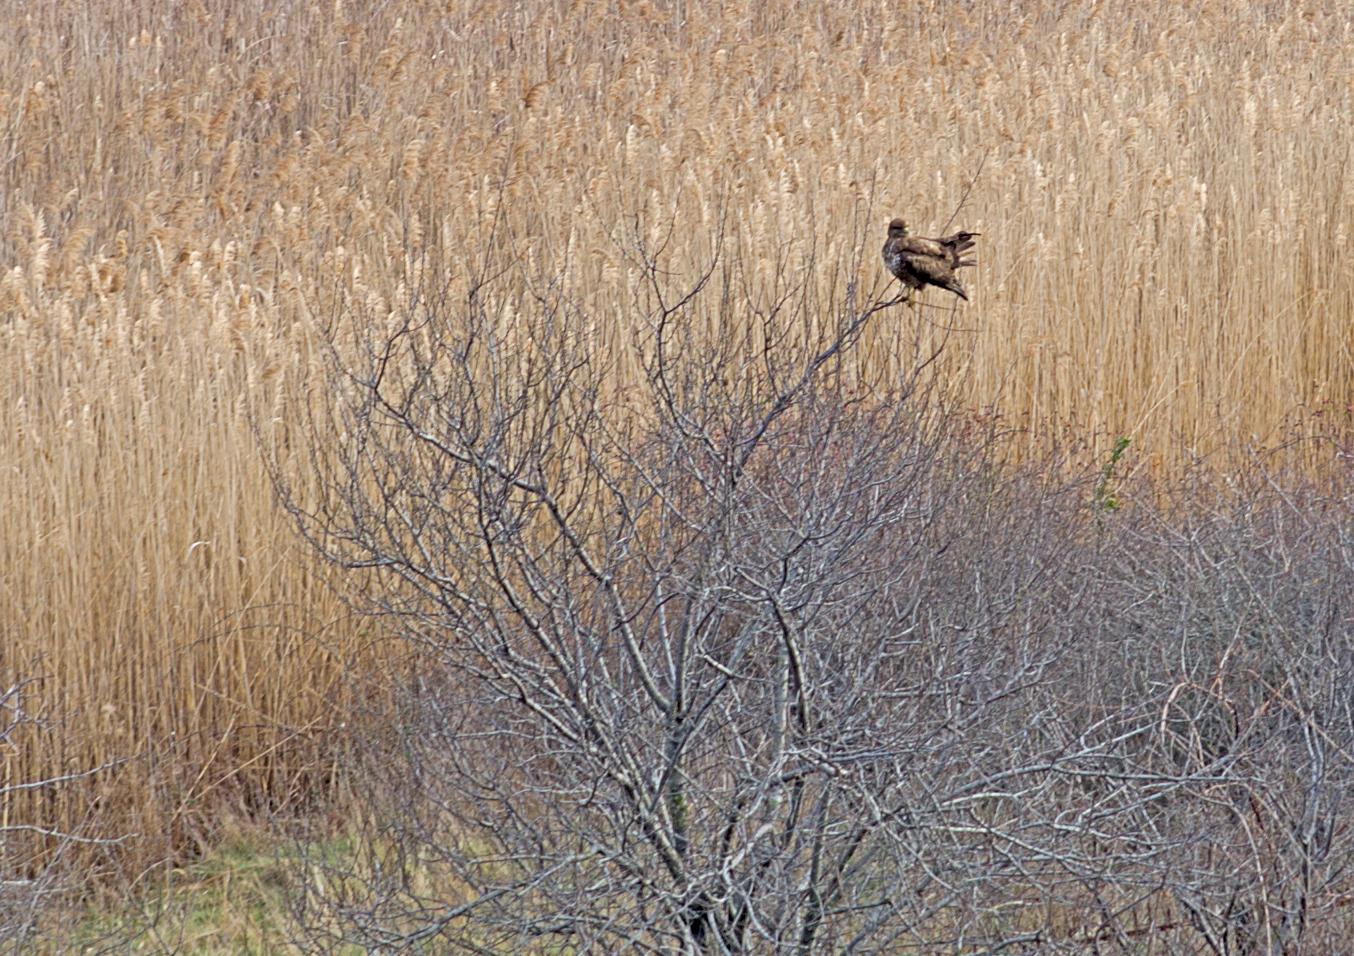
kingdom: Animalia
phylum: Chordata
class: Aves
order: Accipitriformes
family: Accipitridae
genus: Buteo
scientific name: Buteo buteo
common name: Common buzzard
